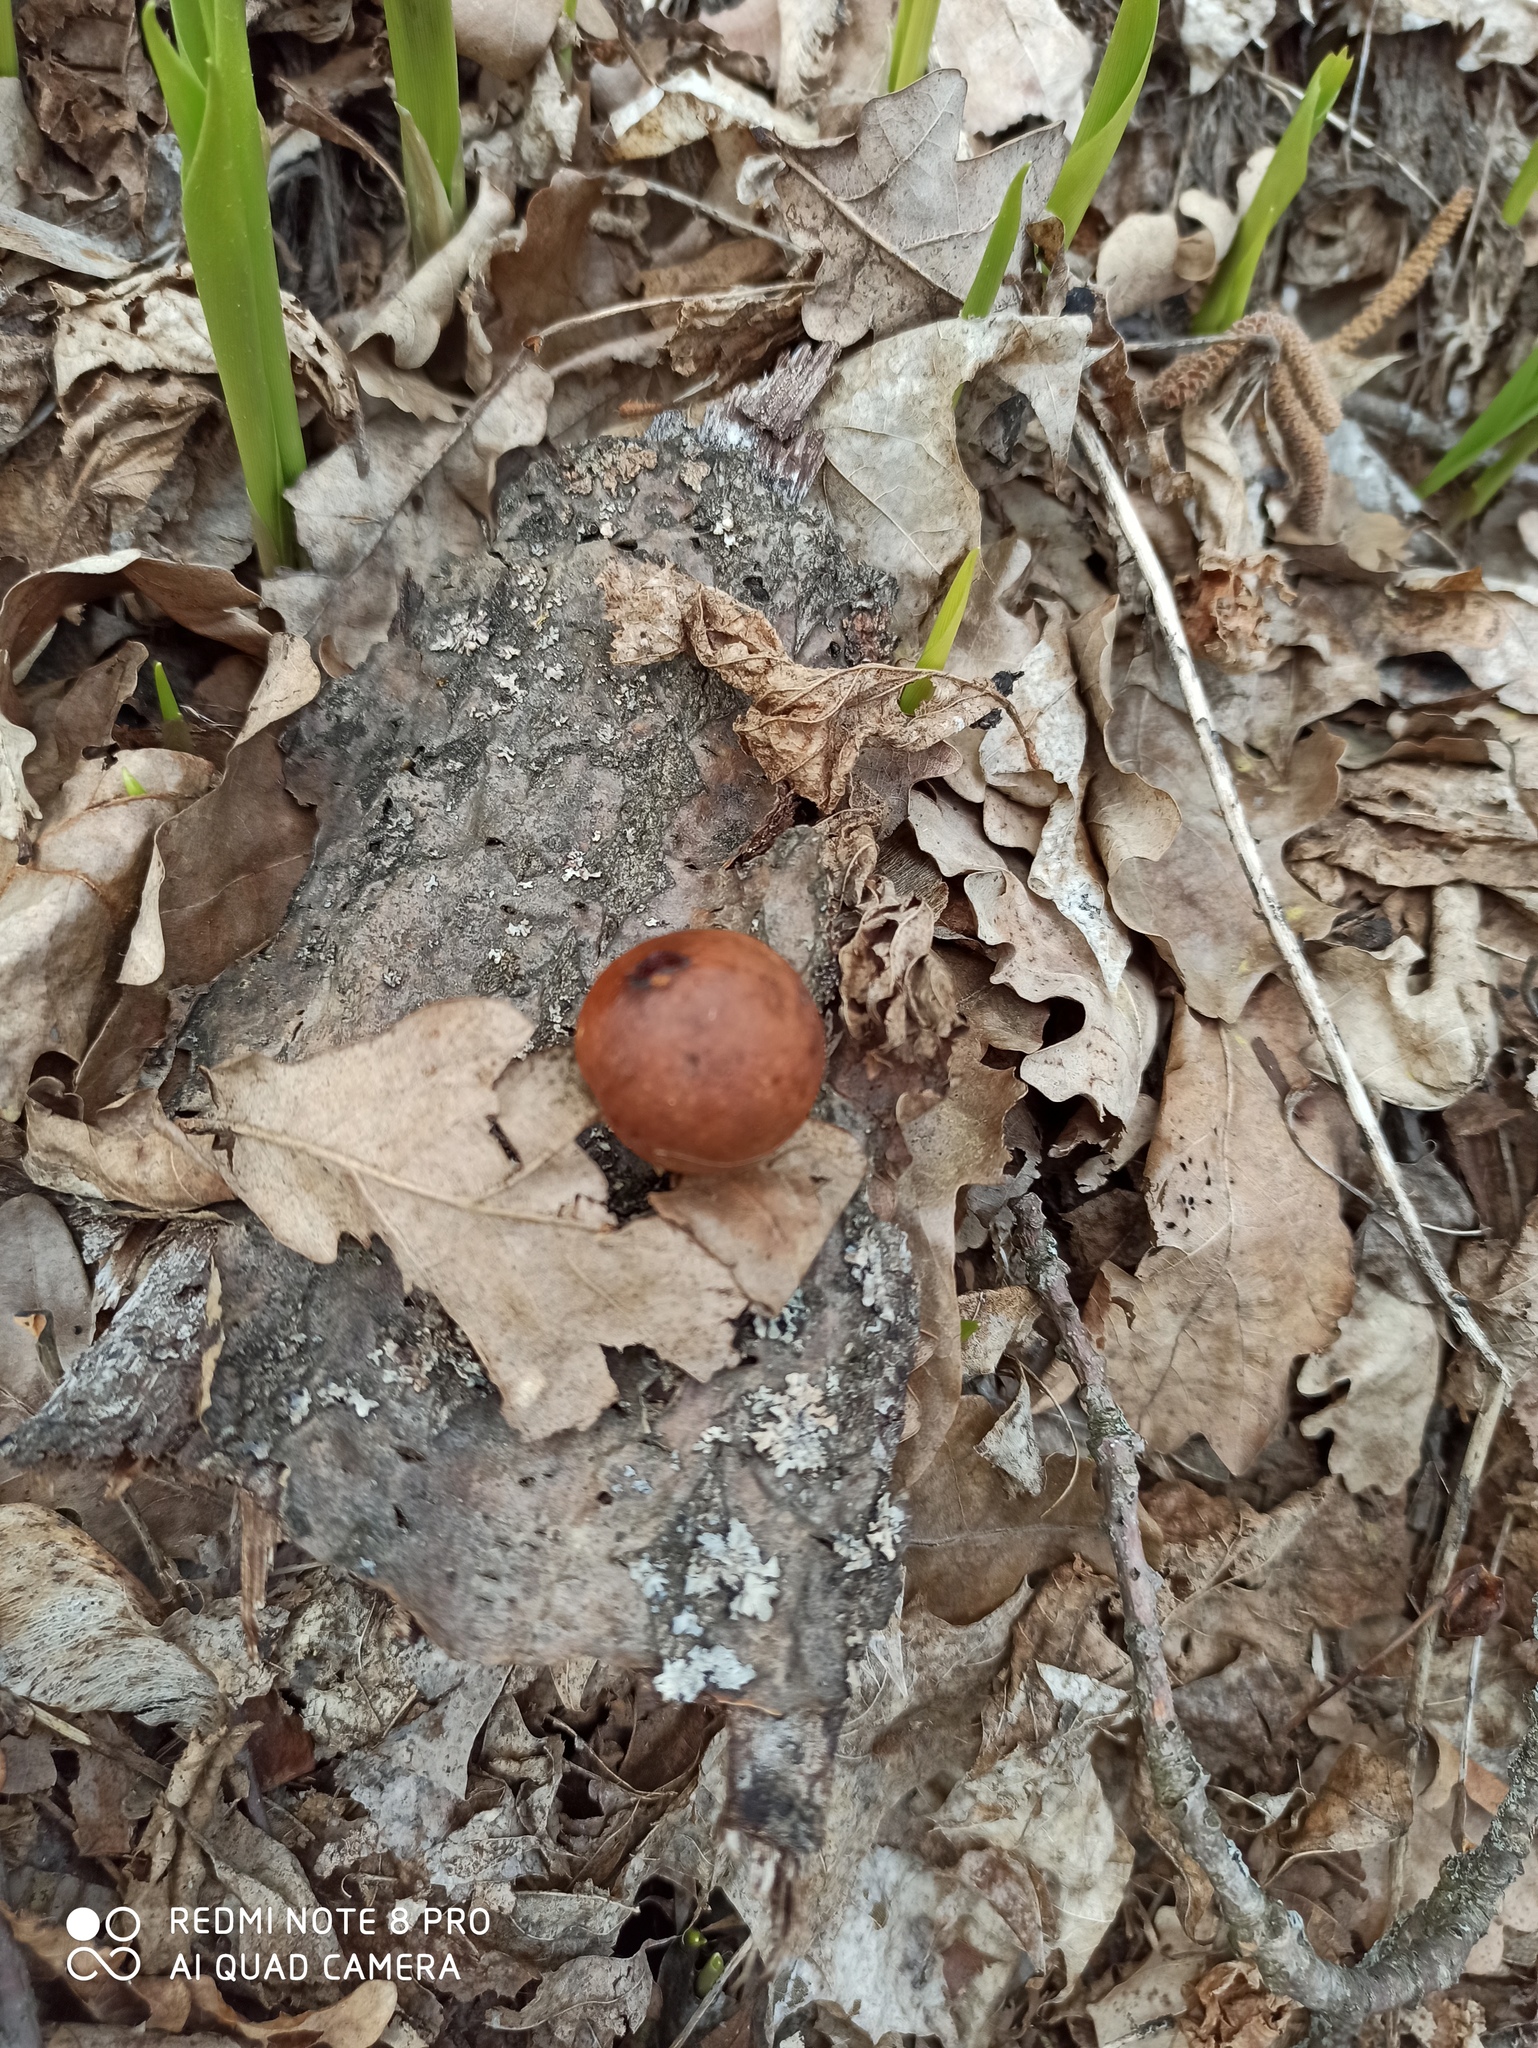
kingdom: Animalia
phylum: Arthropoda
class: Insecta
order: Hymenoptera
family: Cynipidae
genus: Cynips
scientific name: Cynips quercusfolii
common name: Cherry gall
